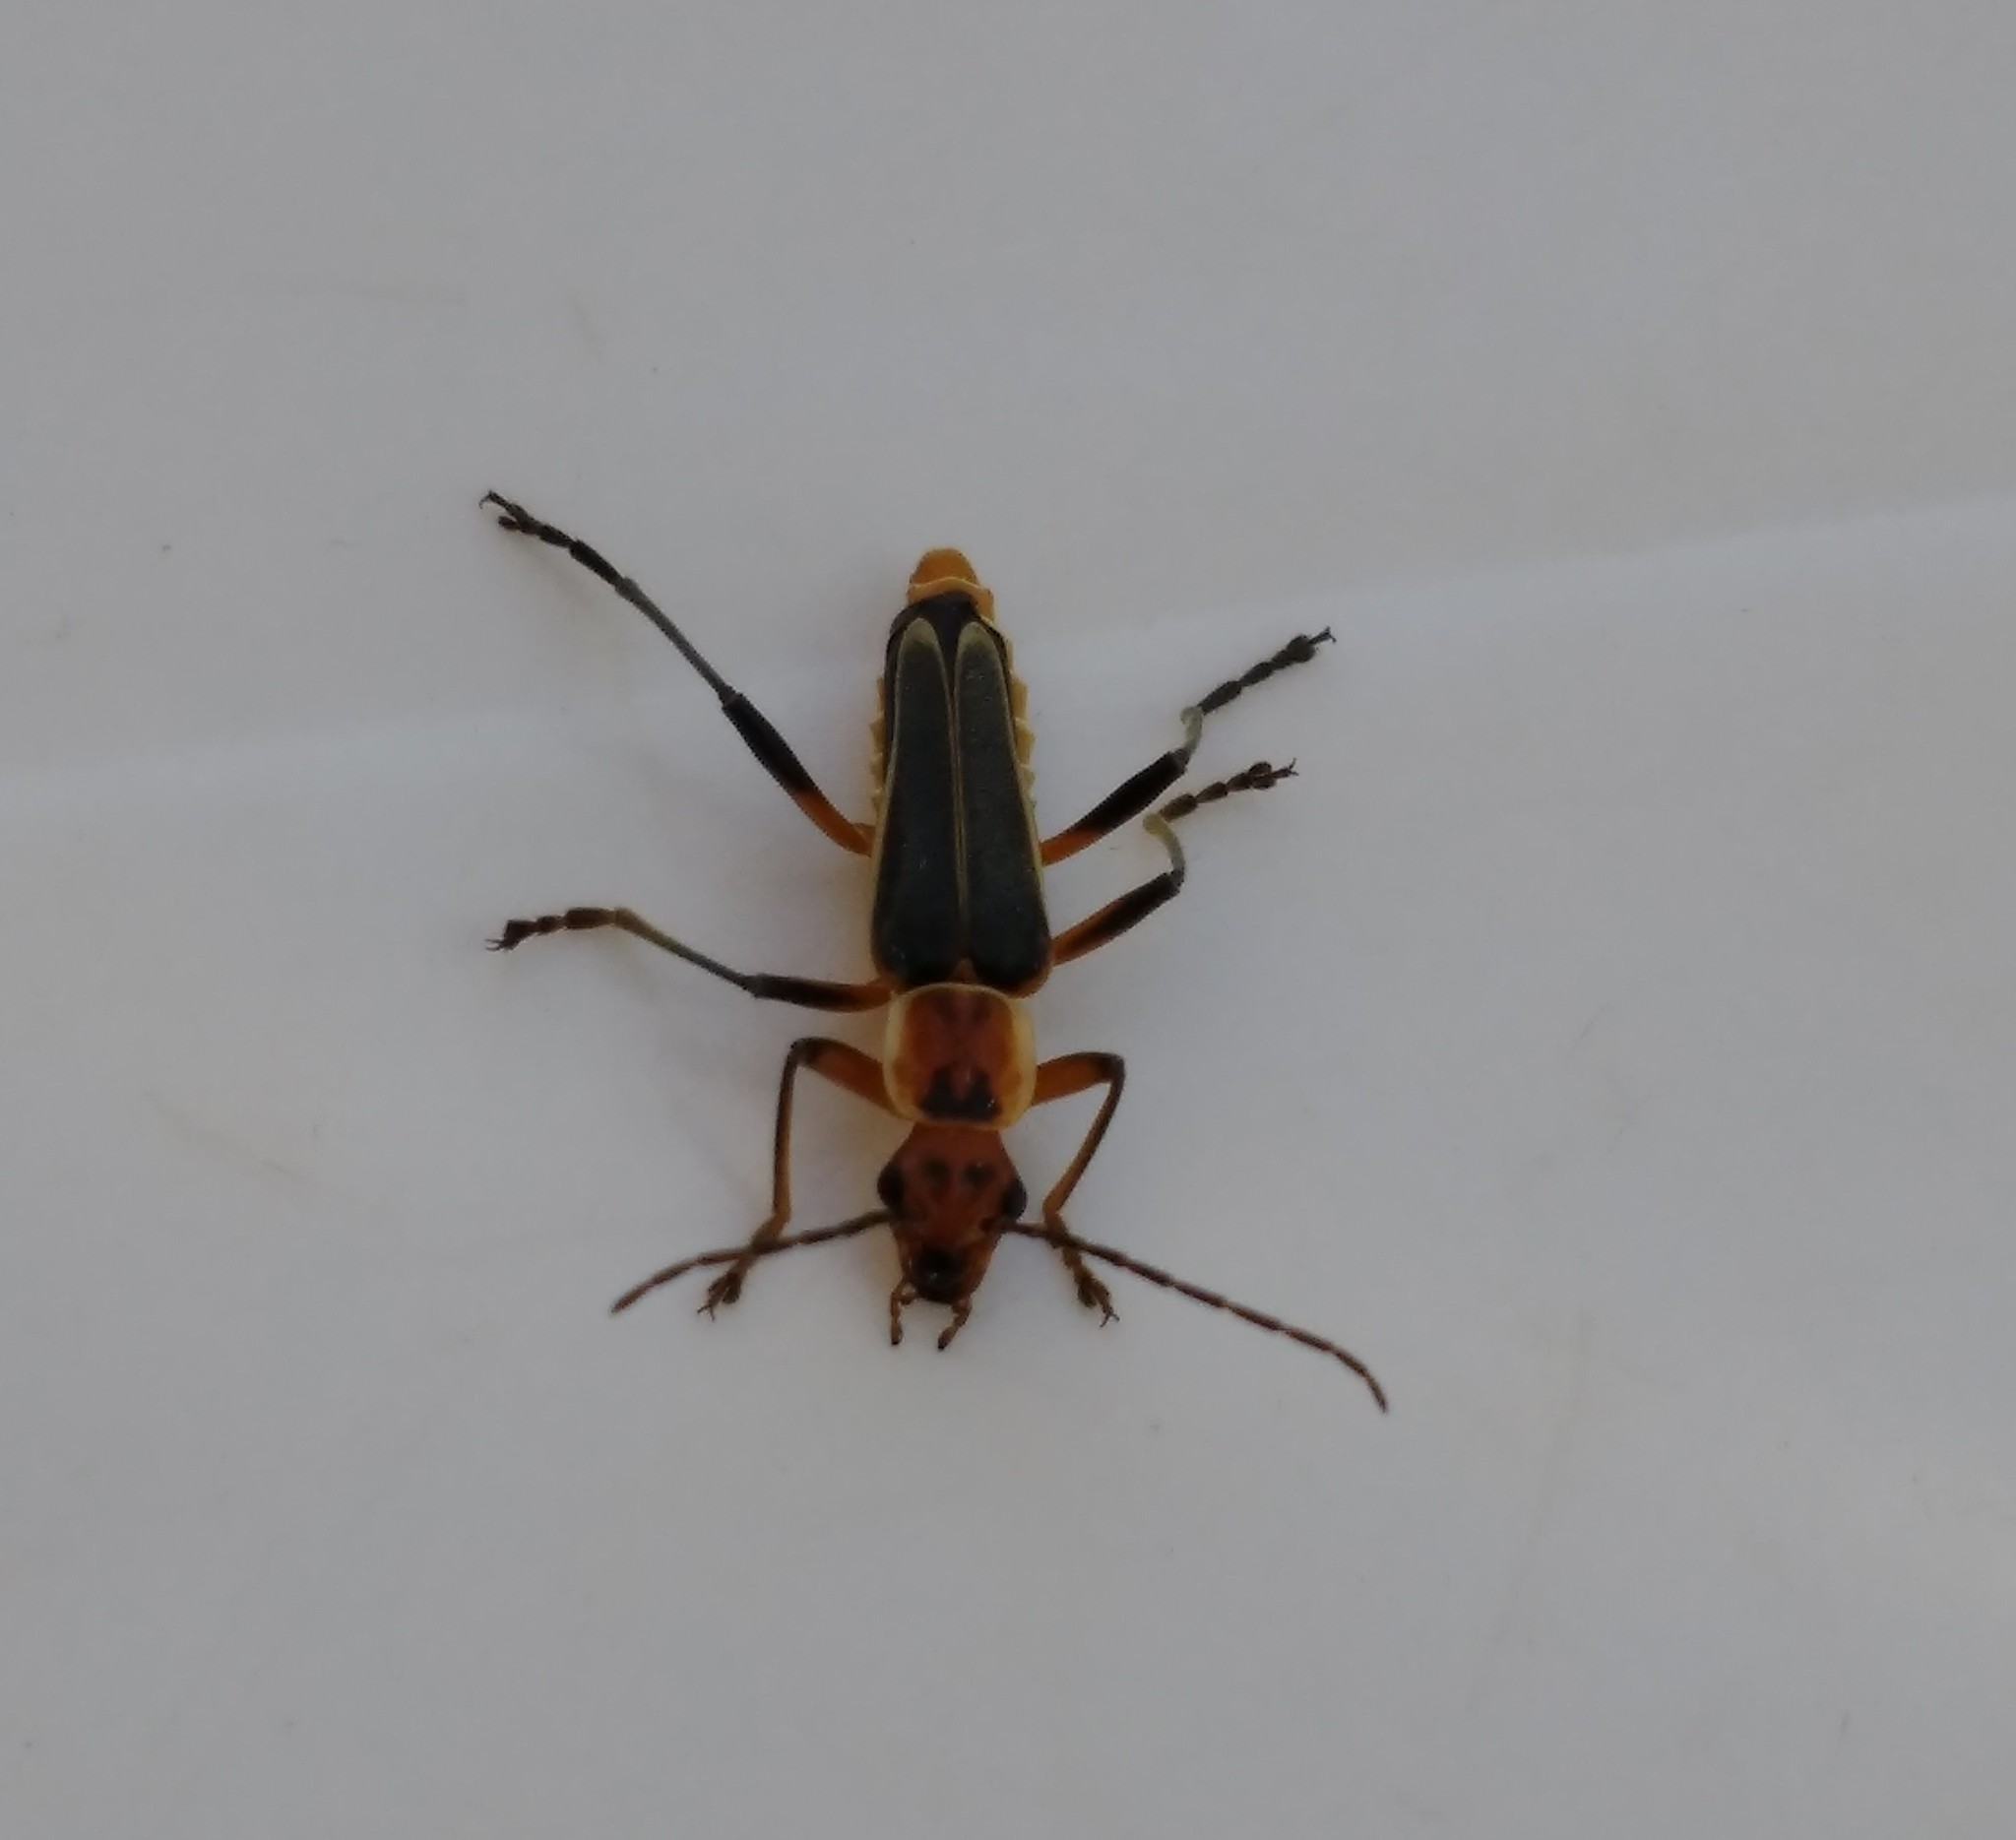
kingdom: Animalia
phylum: Arthropoda
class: Insecta
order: Coleoptera
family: Cantharidae
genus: Chauliognathus
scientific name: Chauliognathus
